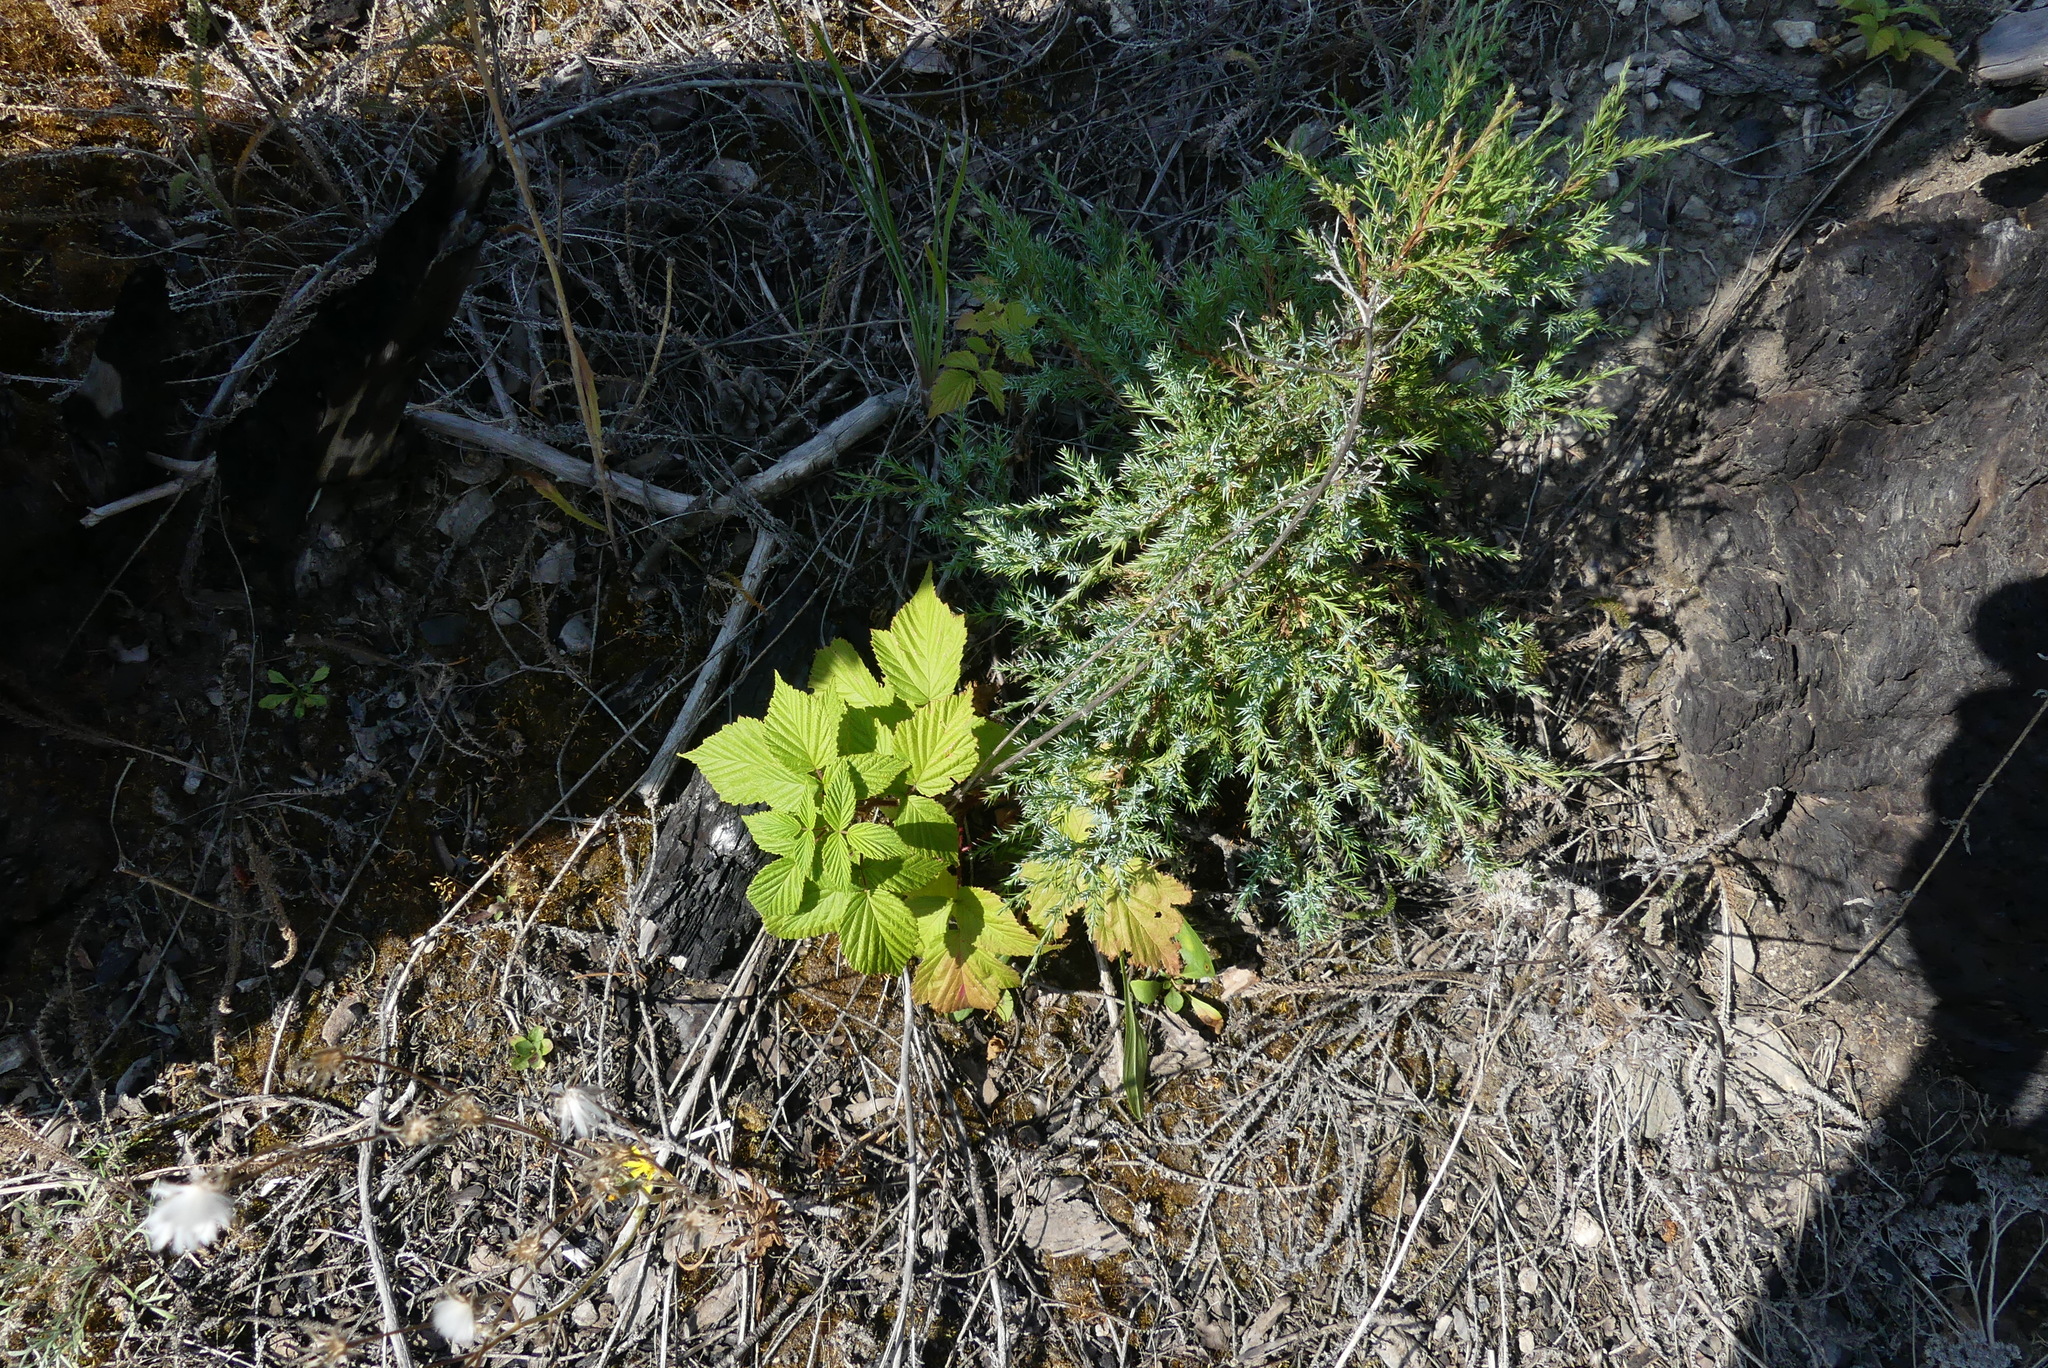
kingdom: Plantae
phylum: Tracheophyta
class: Magnoliopsida
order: Rosales
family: Rosaceae
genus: Rubus
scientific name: Rubus idaeus
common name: Raspberry
